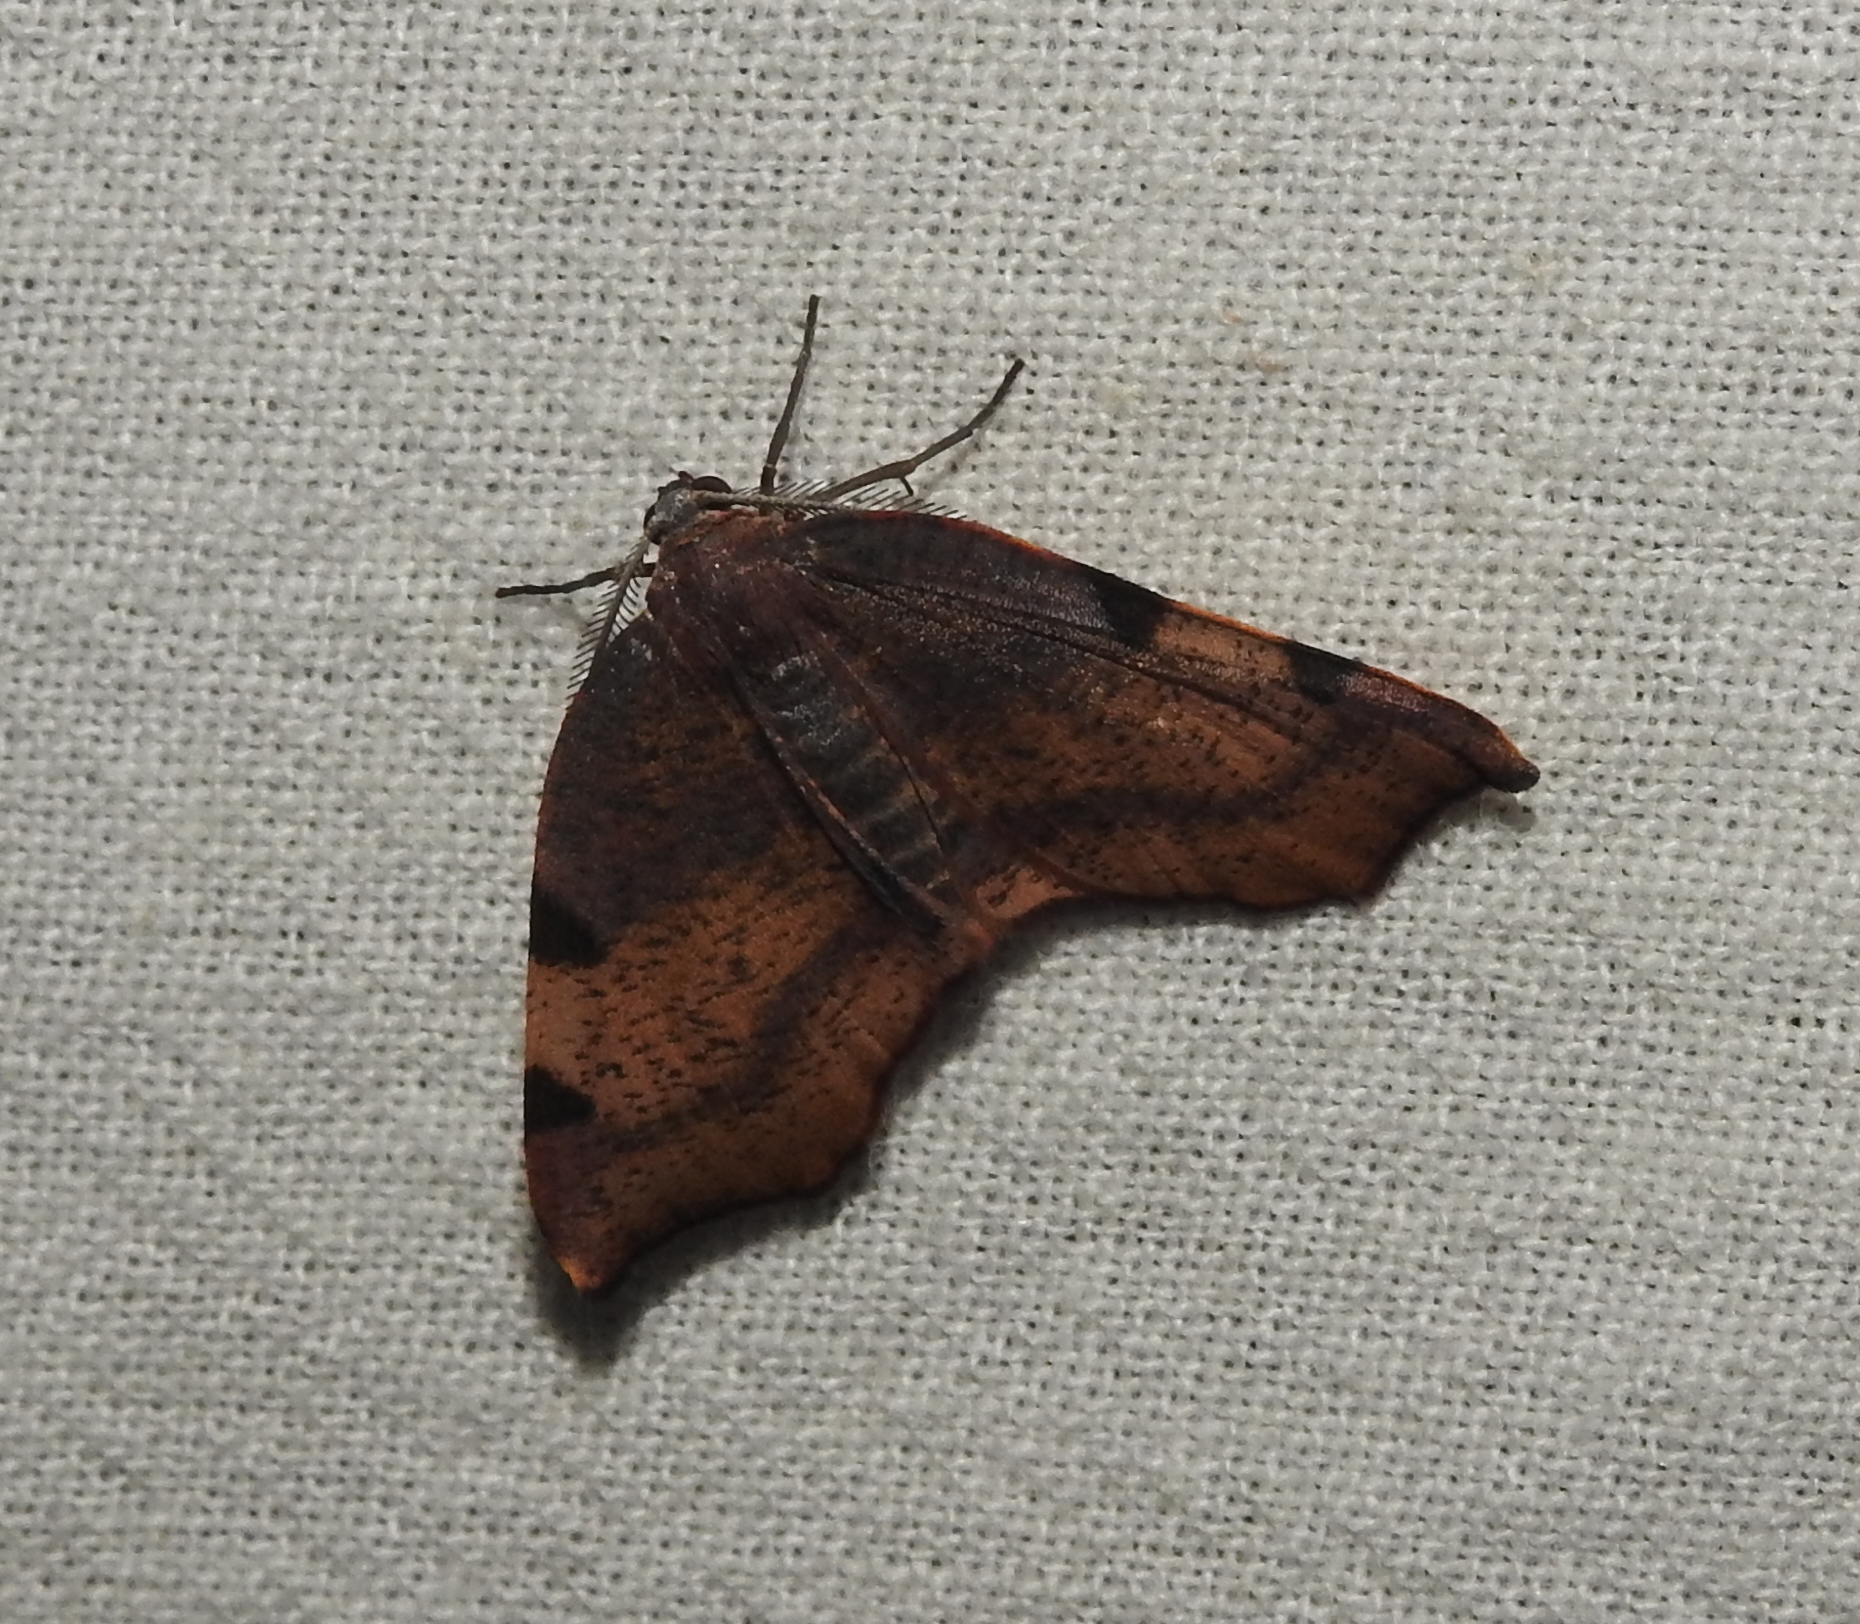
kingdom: Animalia
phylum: Arthropoda
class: Insecta
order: Lepidoptera
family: Geometridae
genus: Achrosis
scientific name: Achrosis rondelaria
